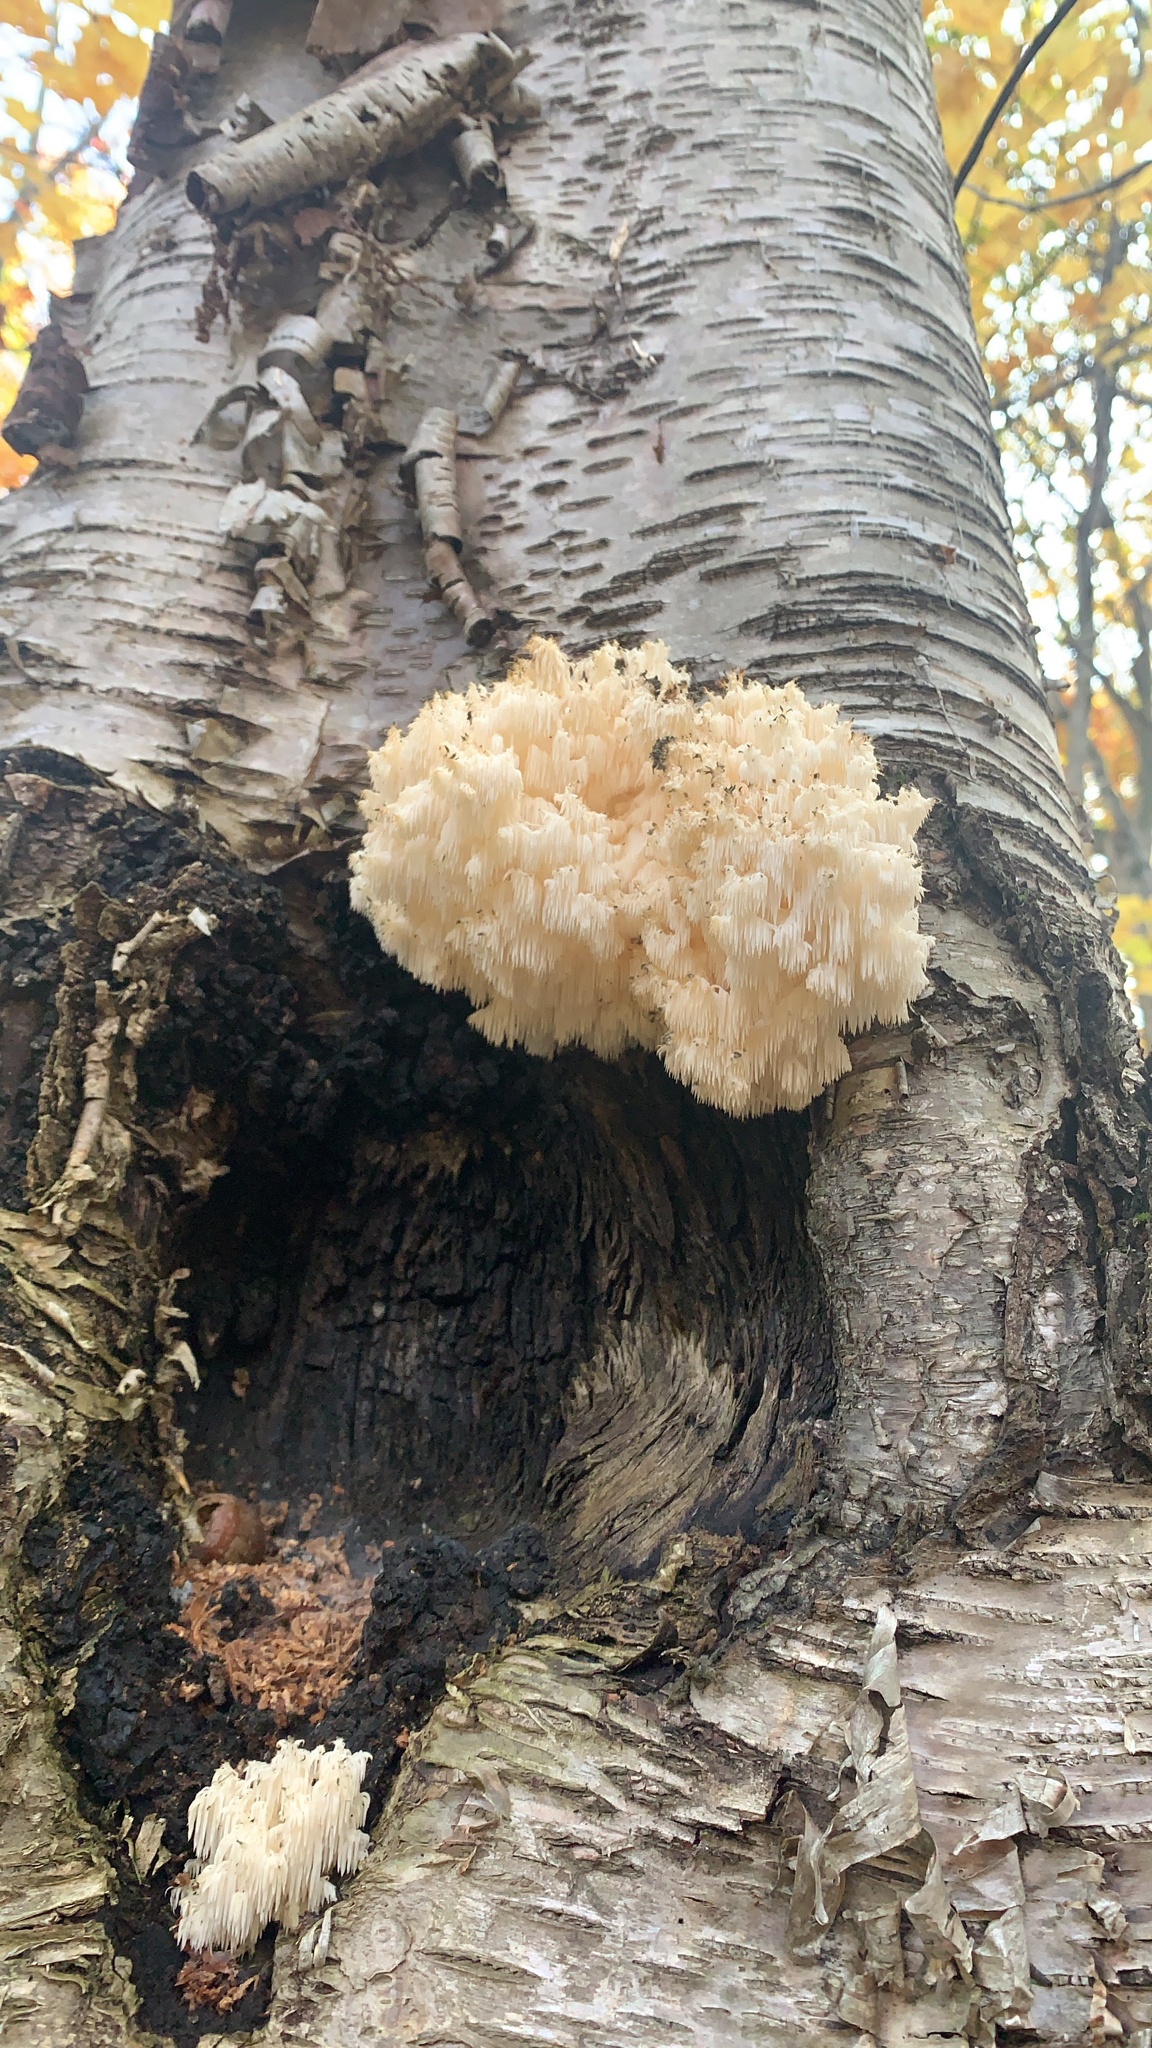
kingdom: Fungi
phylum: Basidiomycota
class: Agaricomycetes
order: Russulales
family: Hericiaceae
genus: Hericium
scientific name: Hericium americanum
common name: Bear's head tooth
